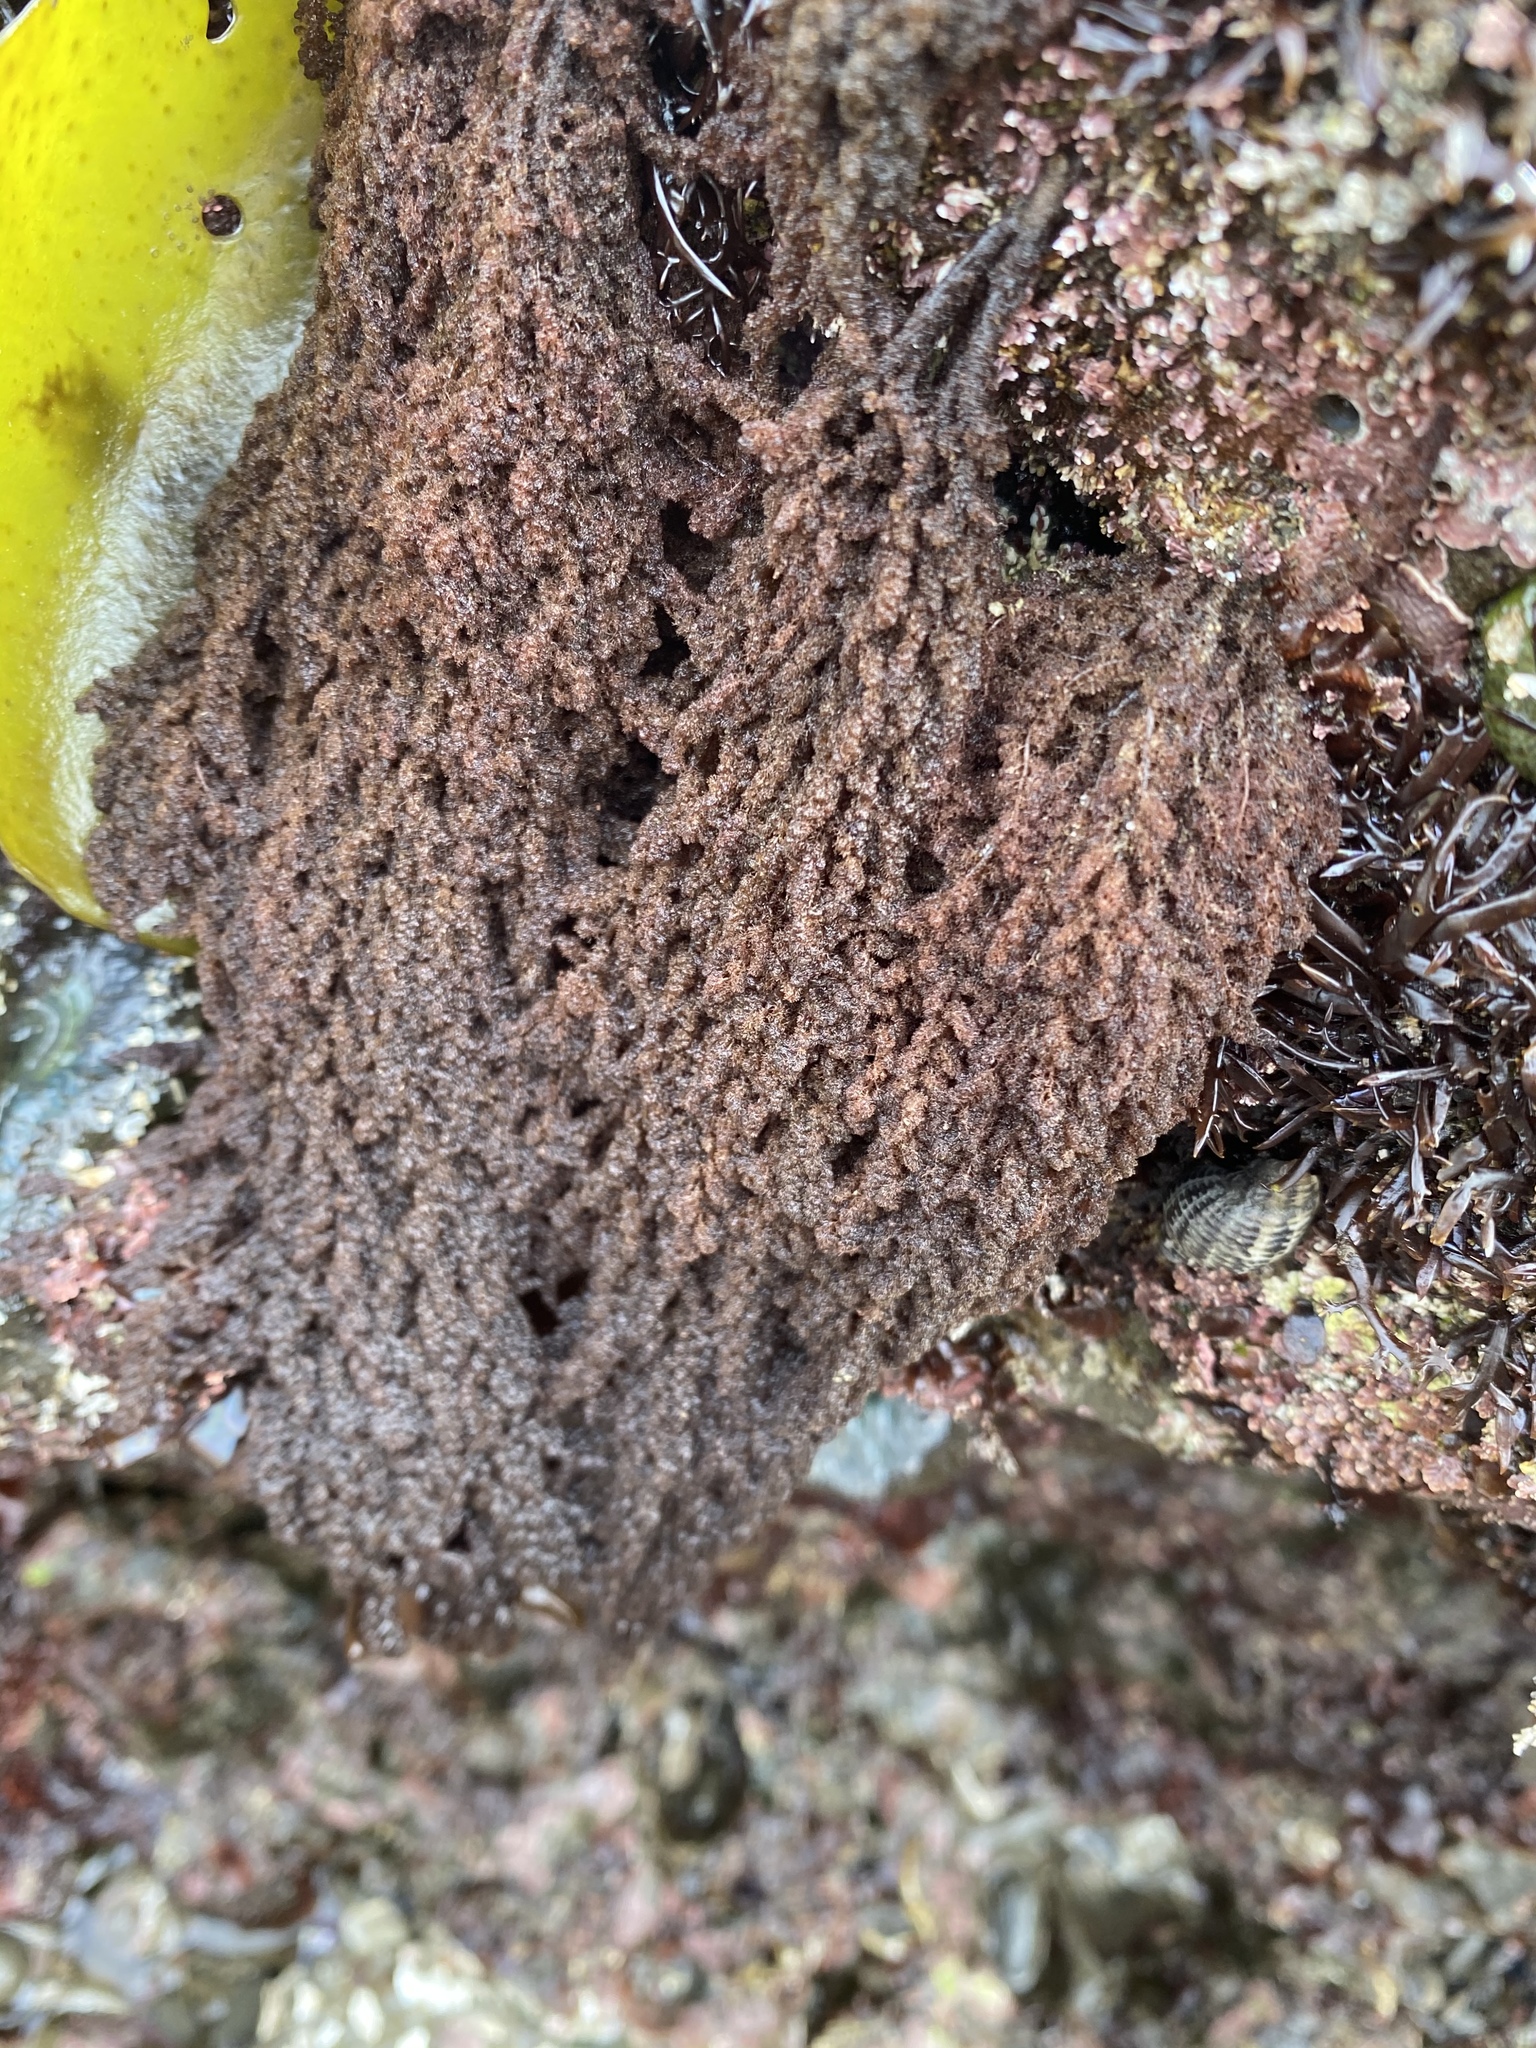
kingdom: Plantae
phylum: Rhodophyta
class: Florideophyceae
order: Ceramiales
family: Callithamniaceae
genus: Callithamnion
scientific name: Callithamnion pikeanum
